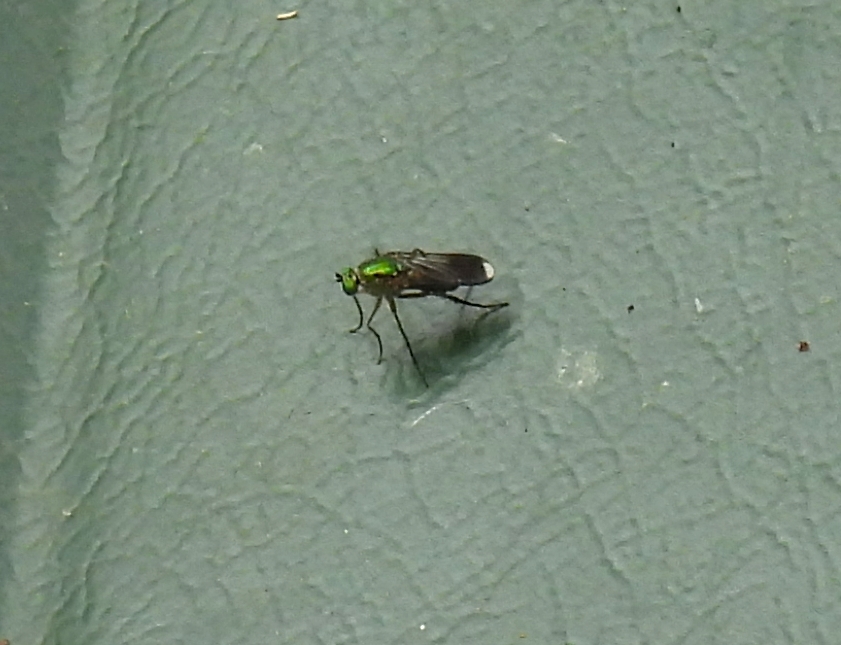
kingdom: Animalia
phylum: Arthropoda
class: Insecta
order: Diptera
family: Dolichopodidae
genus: Poecilobothrus
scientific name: Poecilobothrus nobilitatus
